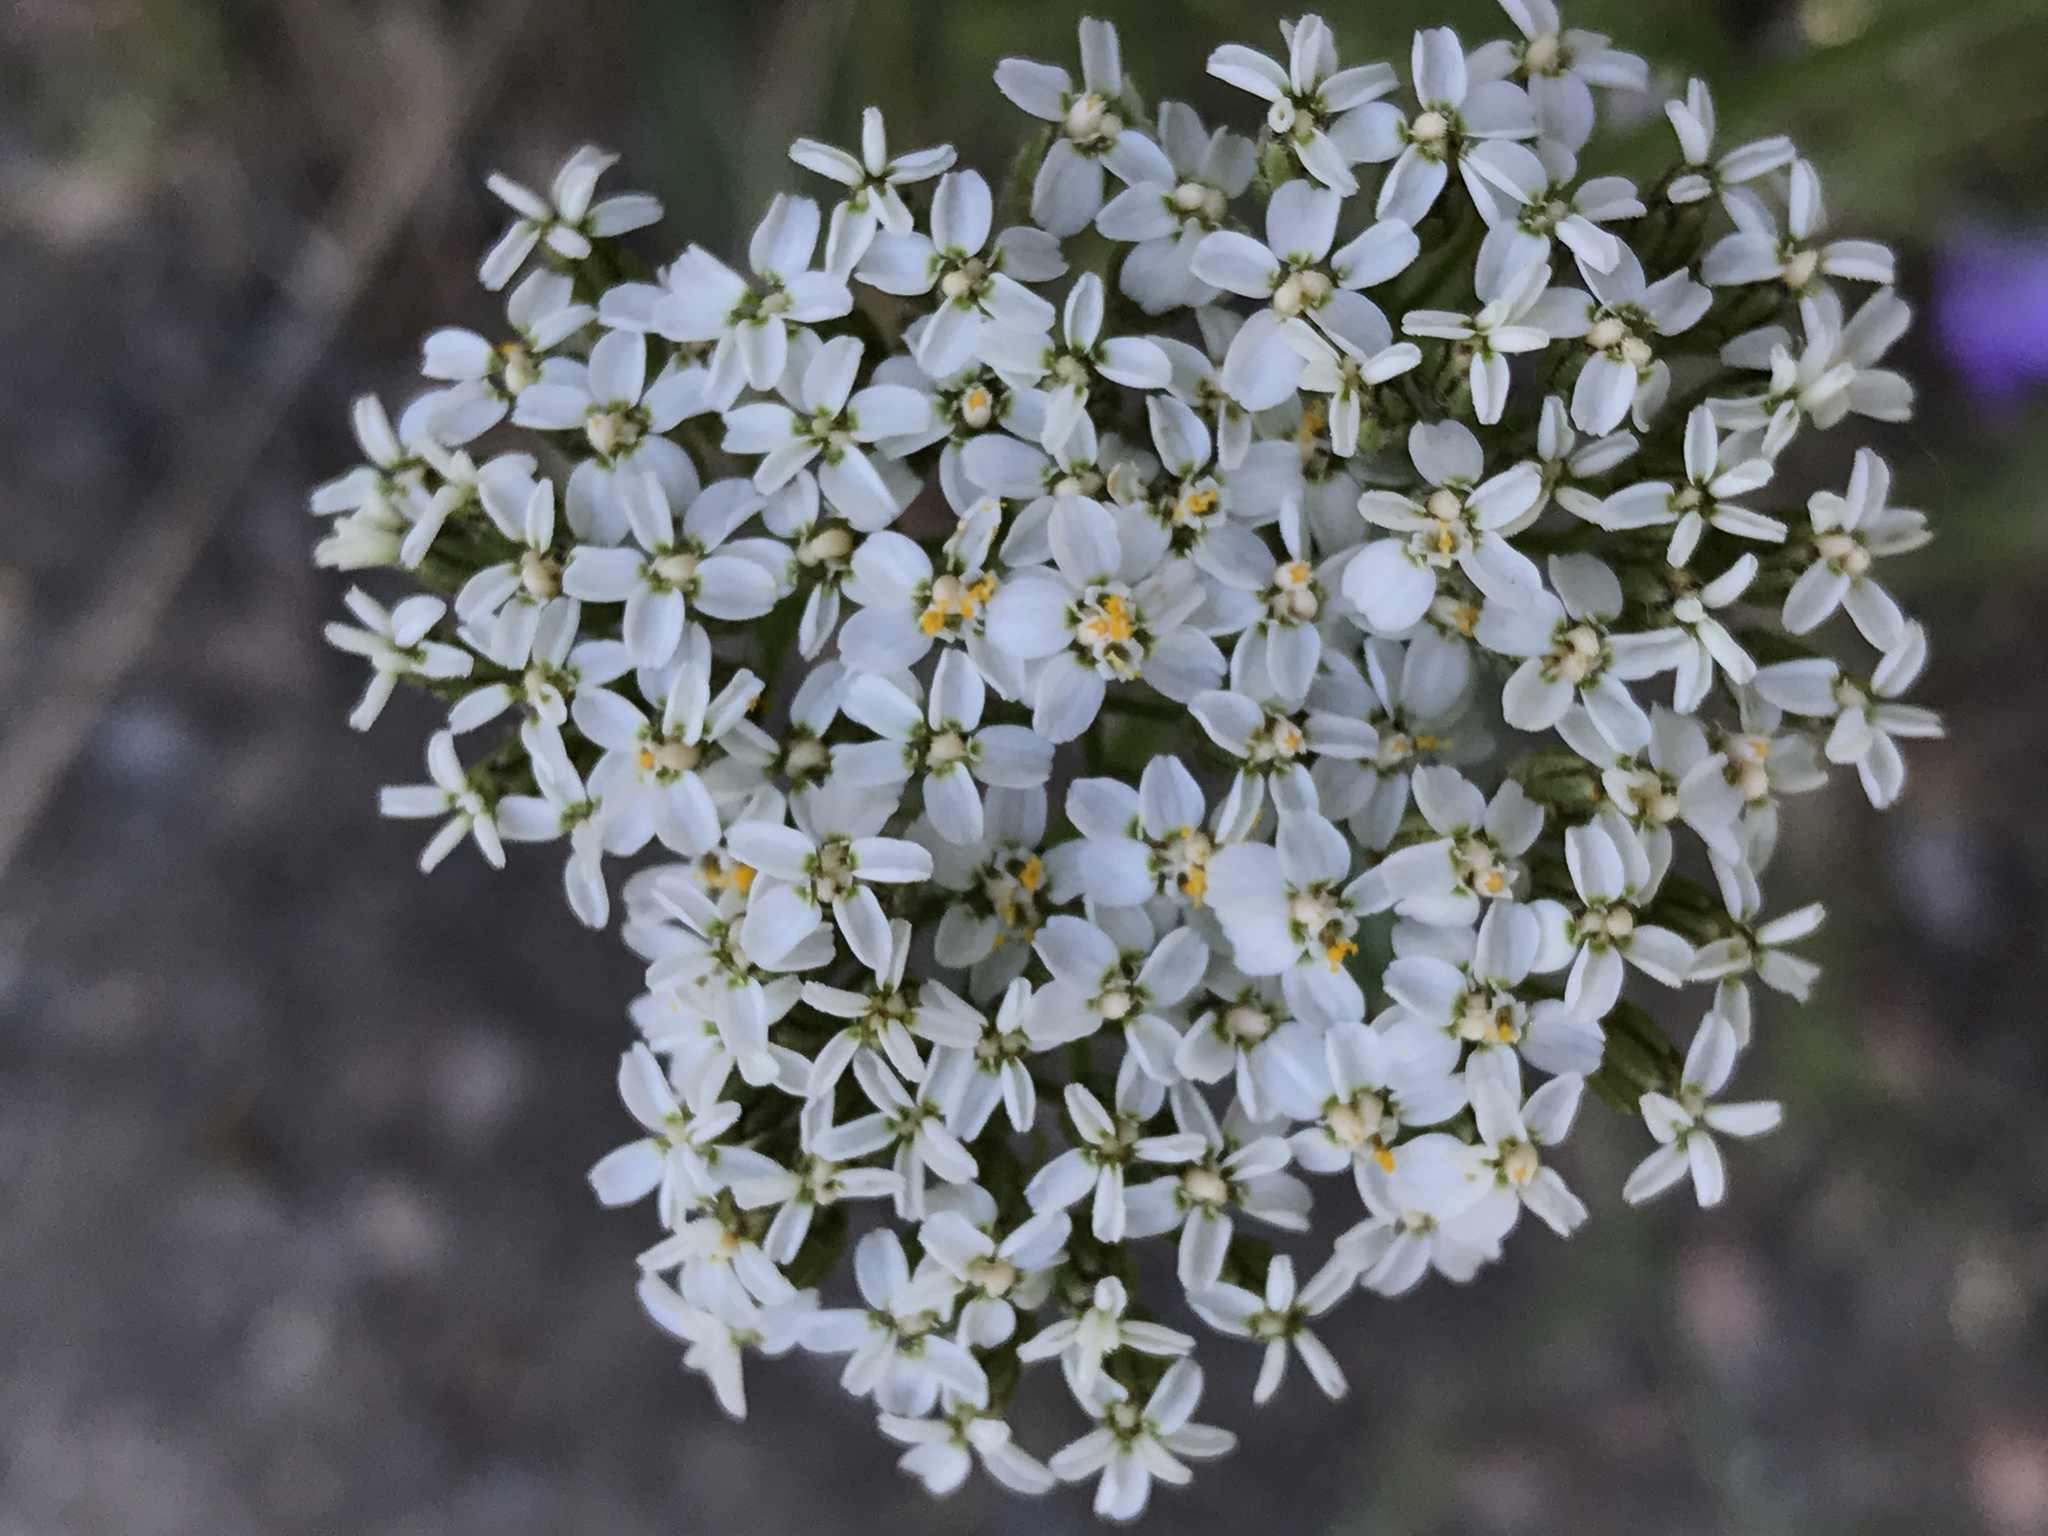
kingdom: Plantae
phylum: Tracheophyta
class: Magnoliopsida
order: Asterales
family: Asteraceae
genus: Achillea
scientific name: Achillea millefolium
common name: Yarrow
